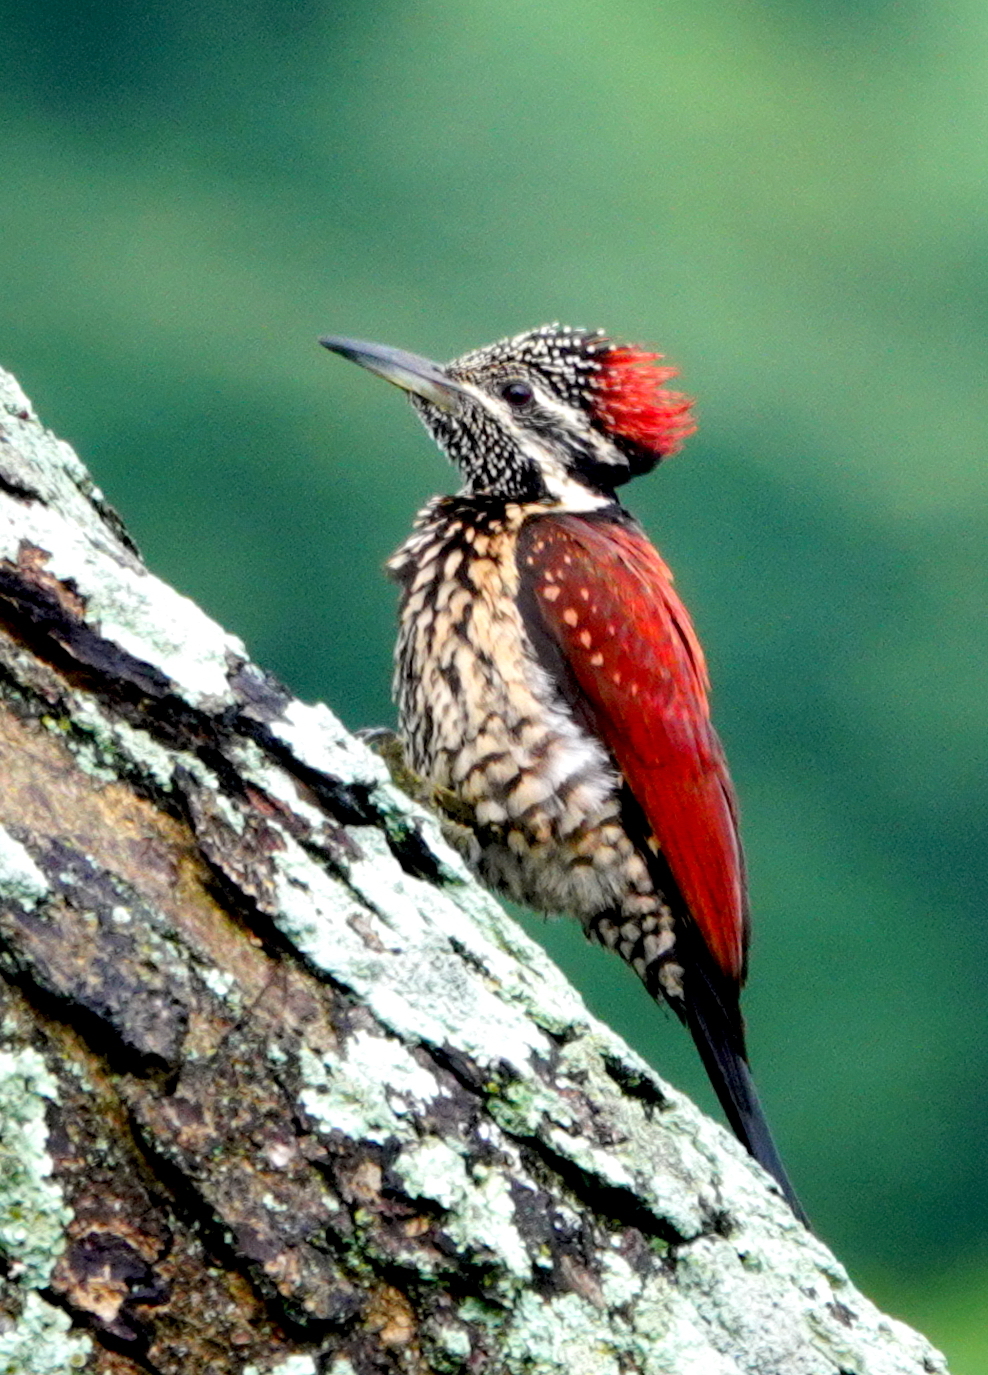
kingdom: Animalia
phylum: Chordata
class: Aves
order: Piciformes
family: Picidae
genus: Dinopium
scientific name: Dinopium psarodes
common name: Red-backed flameback
